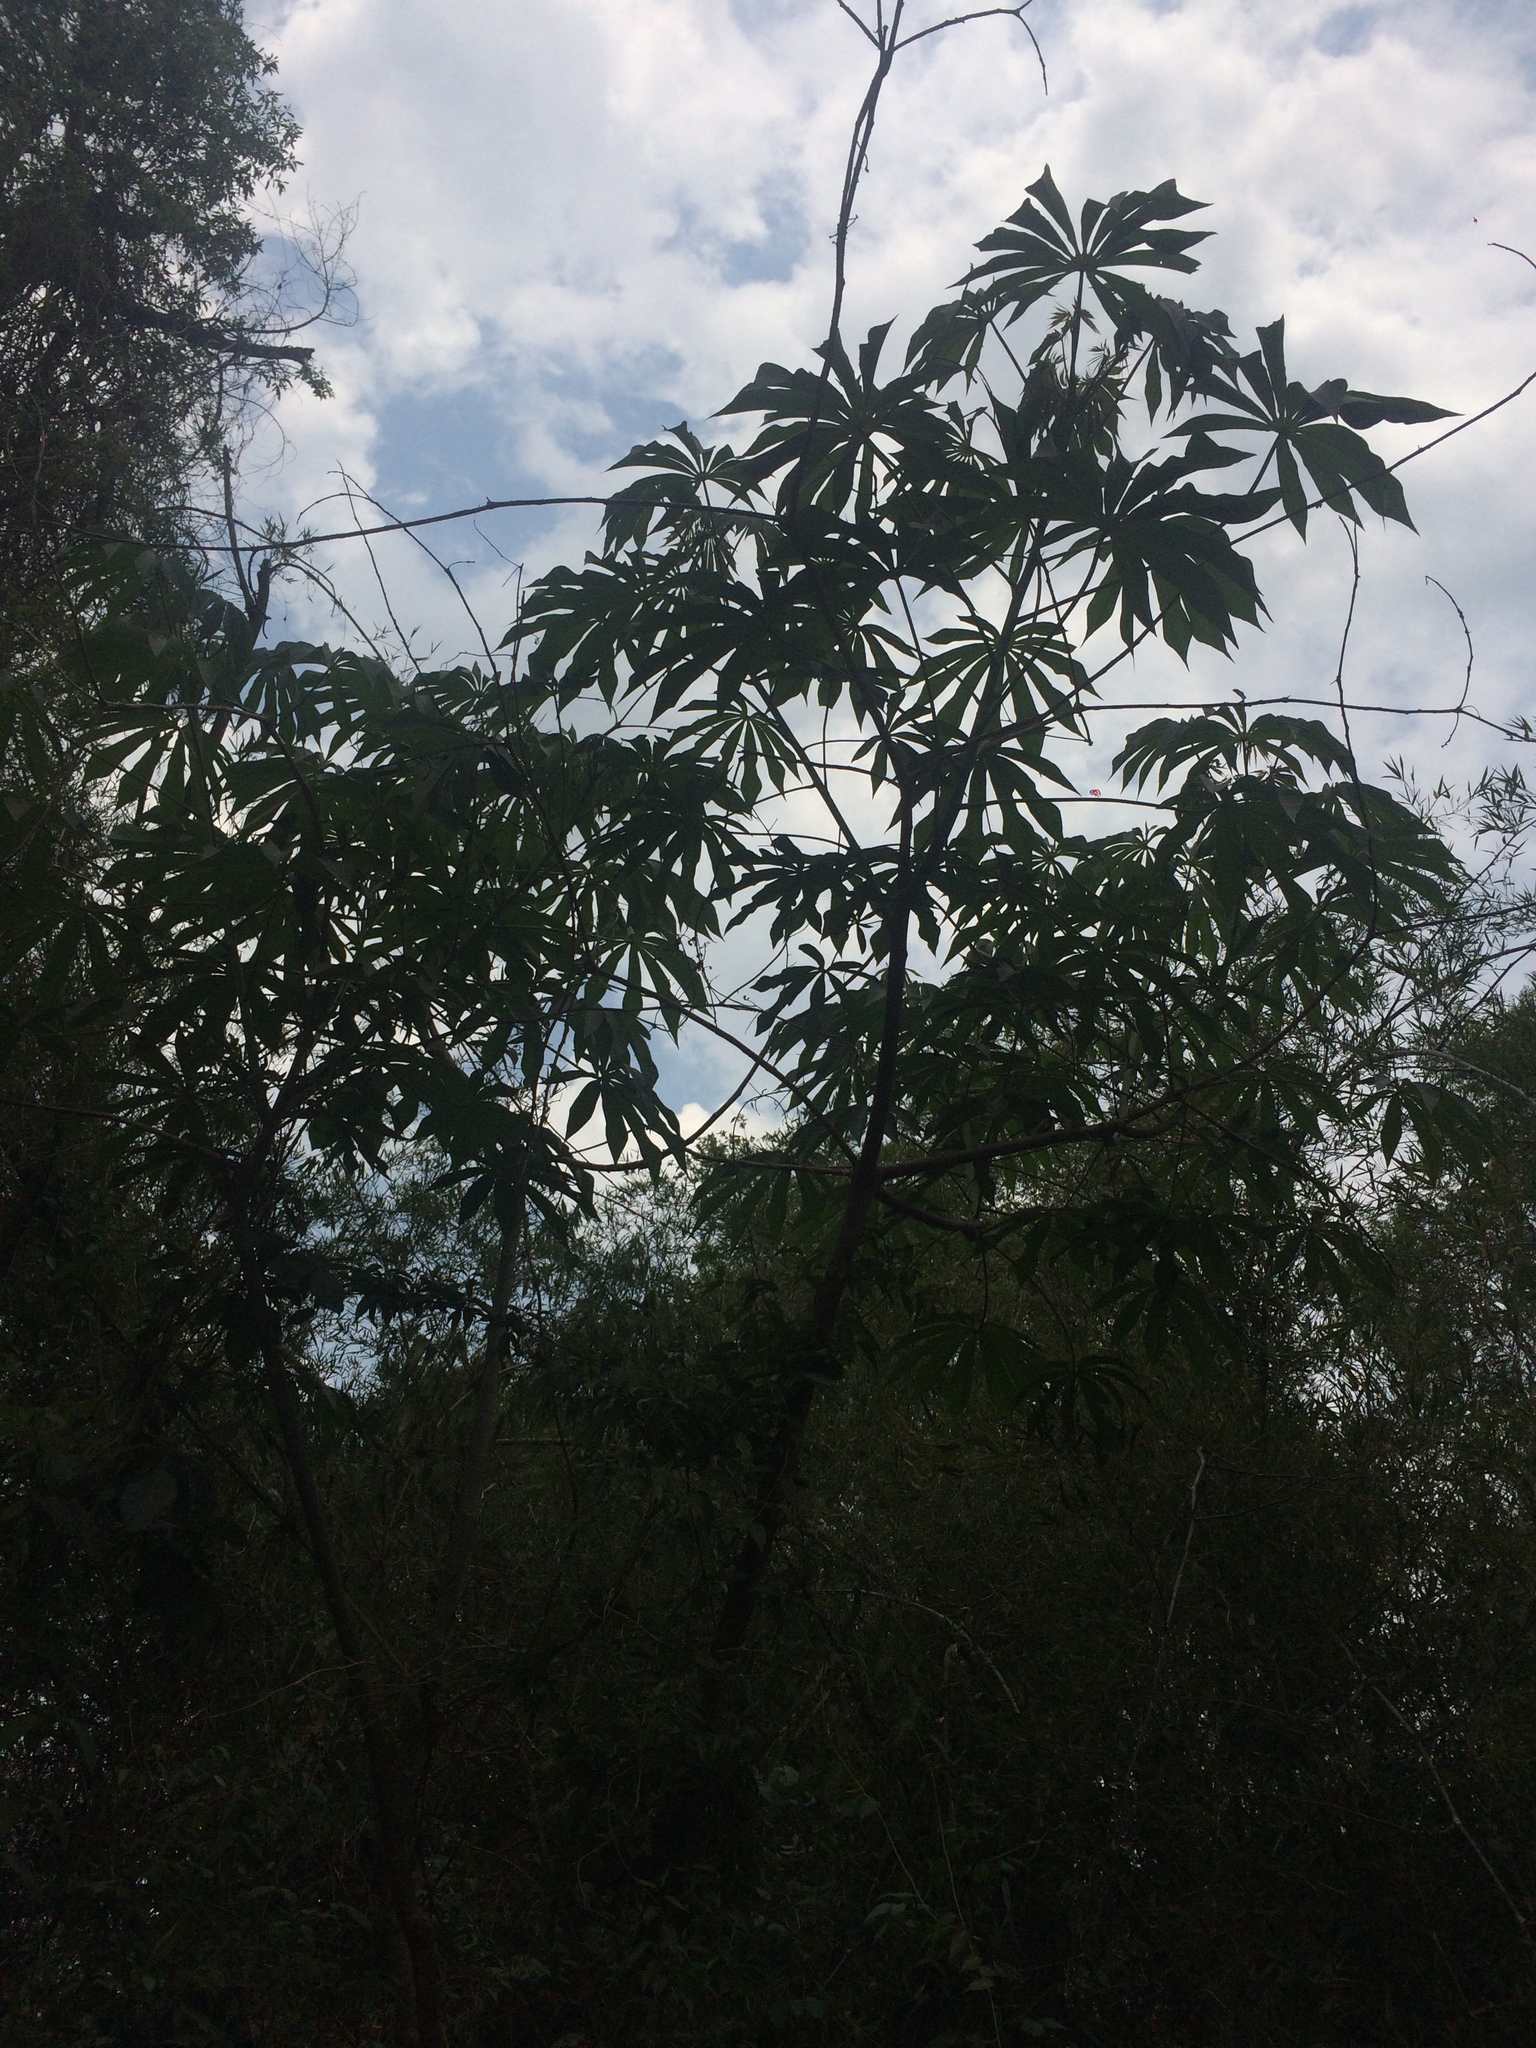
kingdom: Plantae
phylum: Tracheophyta
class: Magnoliopsida
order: Malpighiales
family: Euphorbiaceae
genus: Manihot
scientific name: Manihot grahamii
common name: Graham's manihot
